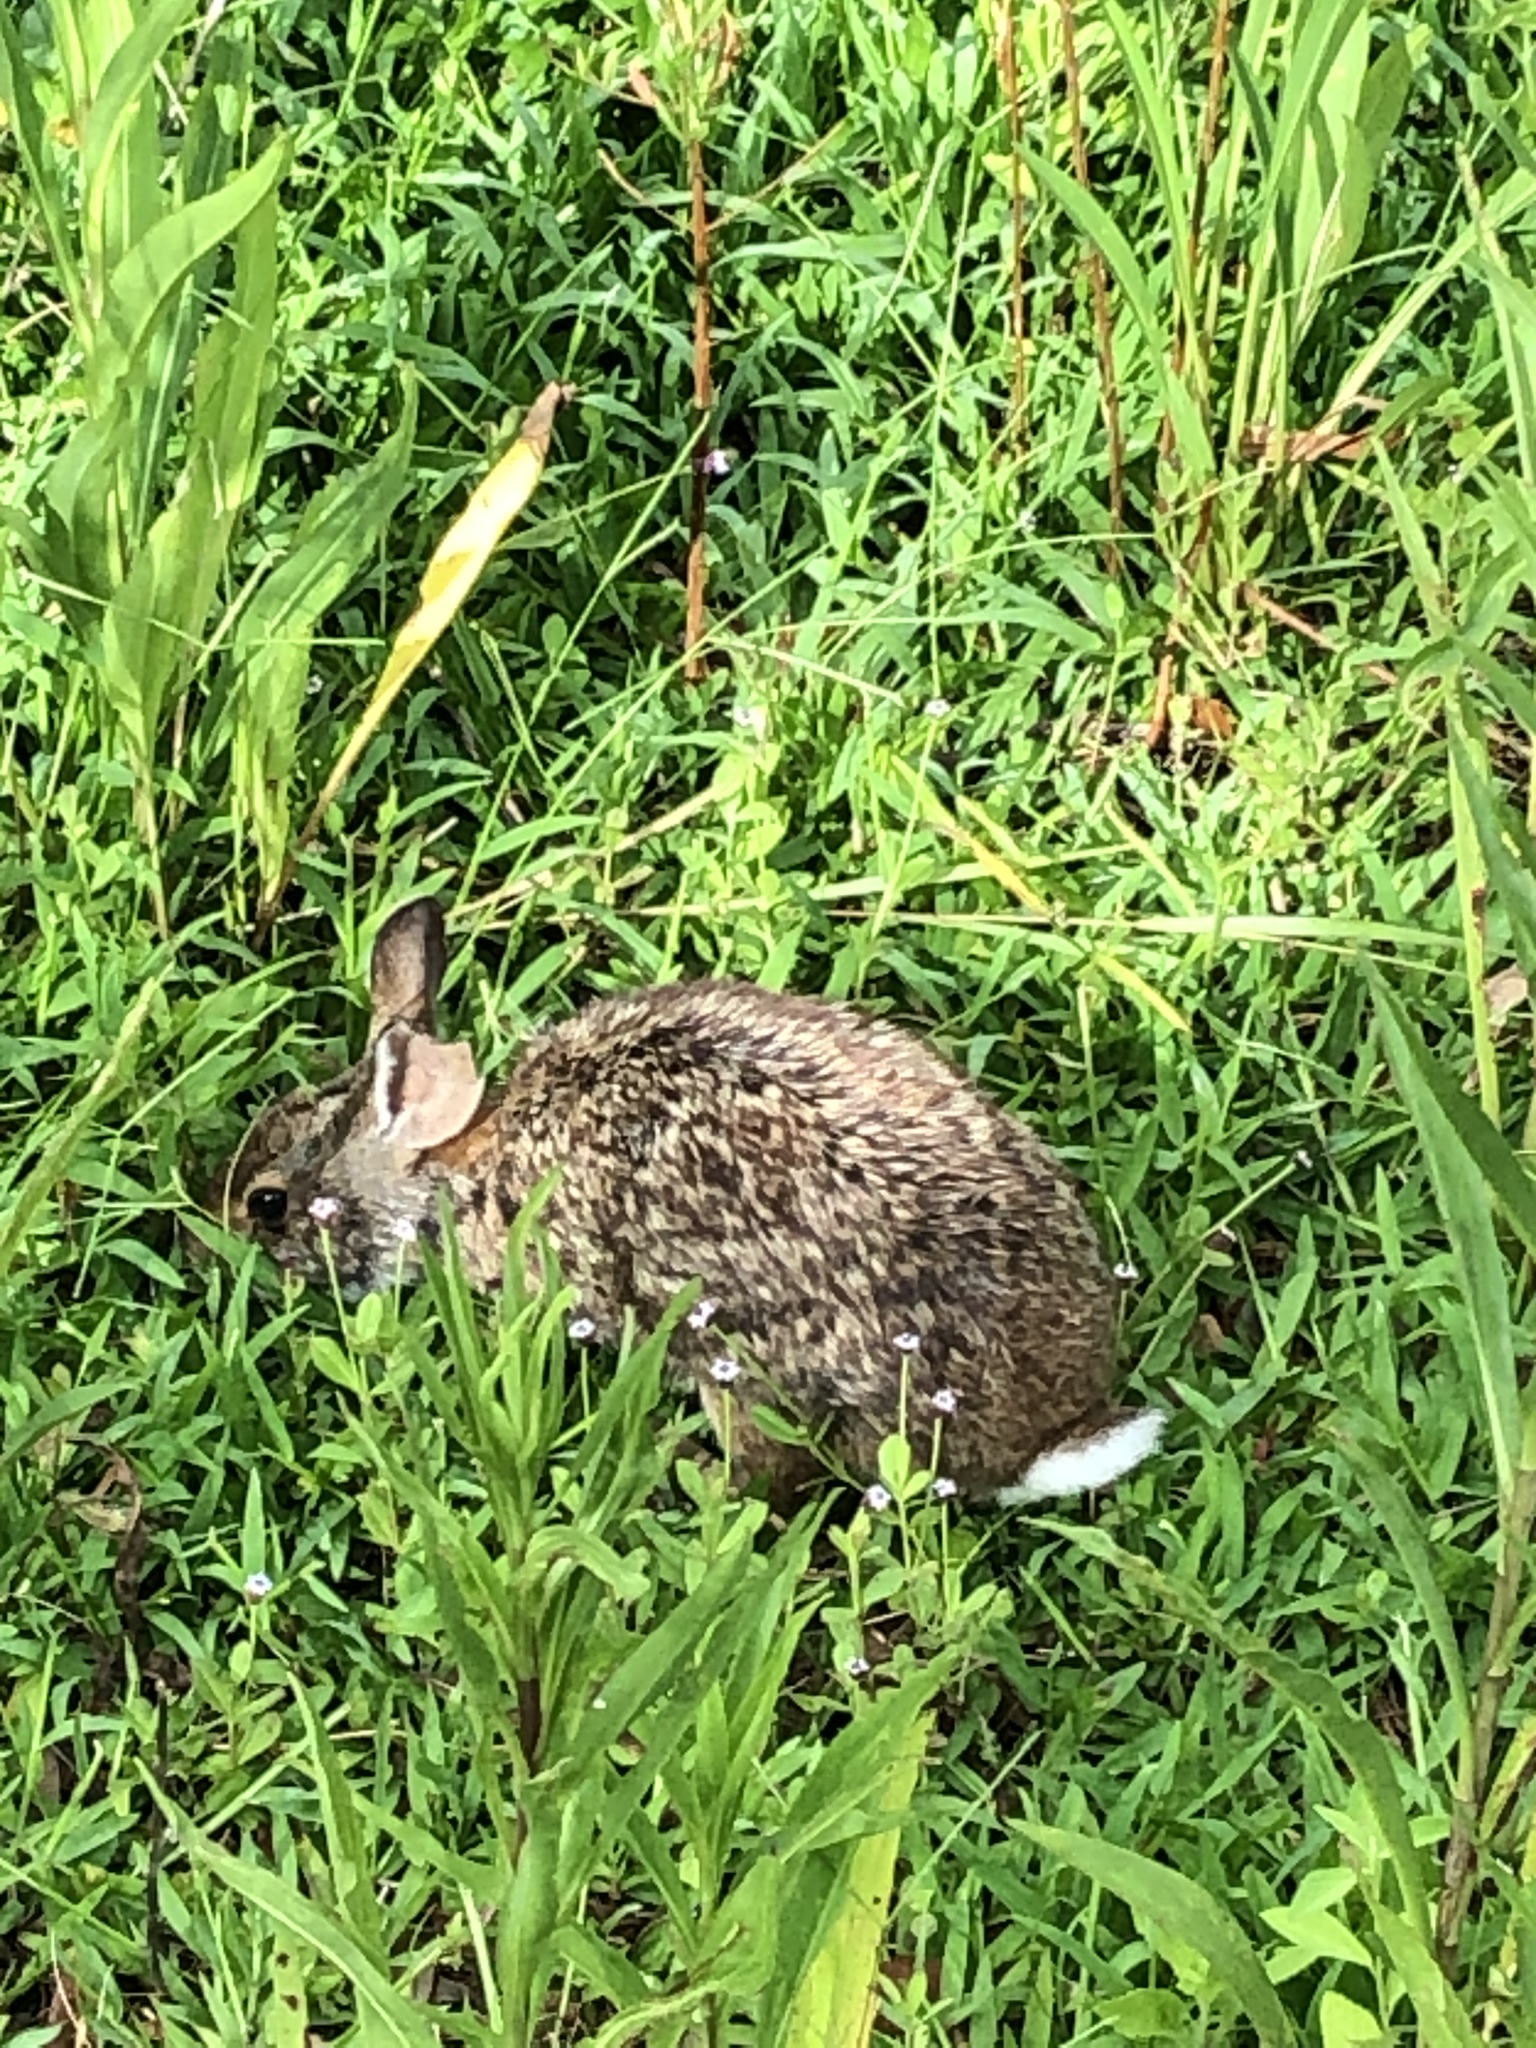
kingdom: Animalia
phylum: Chordata
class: Mammalia
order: Lagomorpha
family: Leporidae
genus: Sylvilagus
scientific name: Sylvilagus aquaticus
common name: Swamp rabbit
